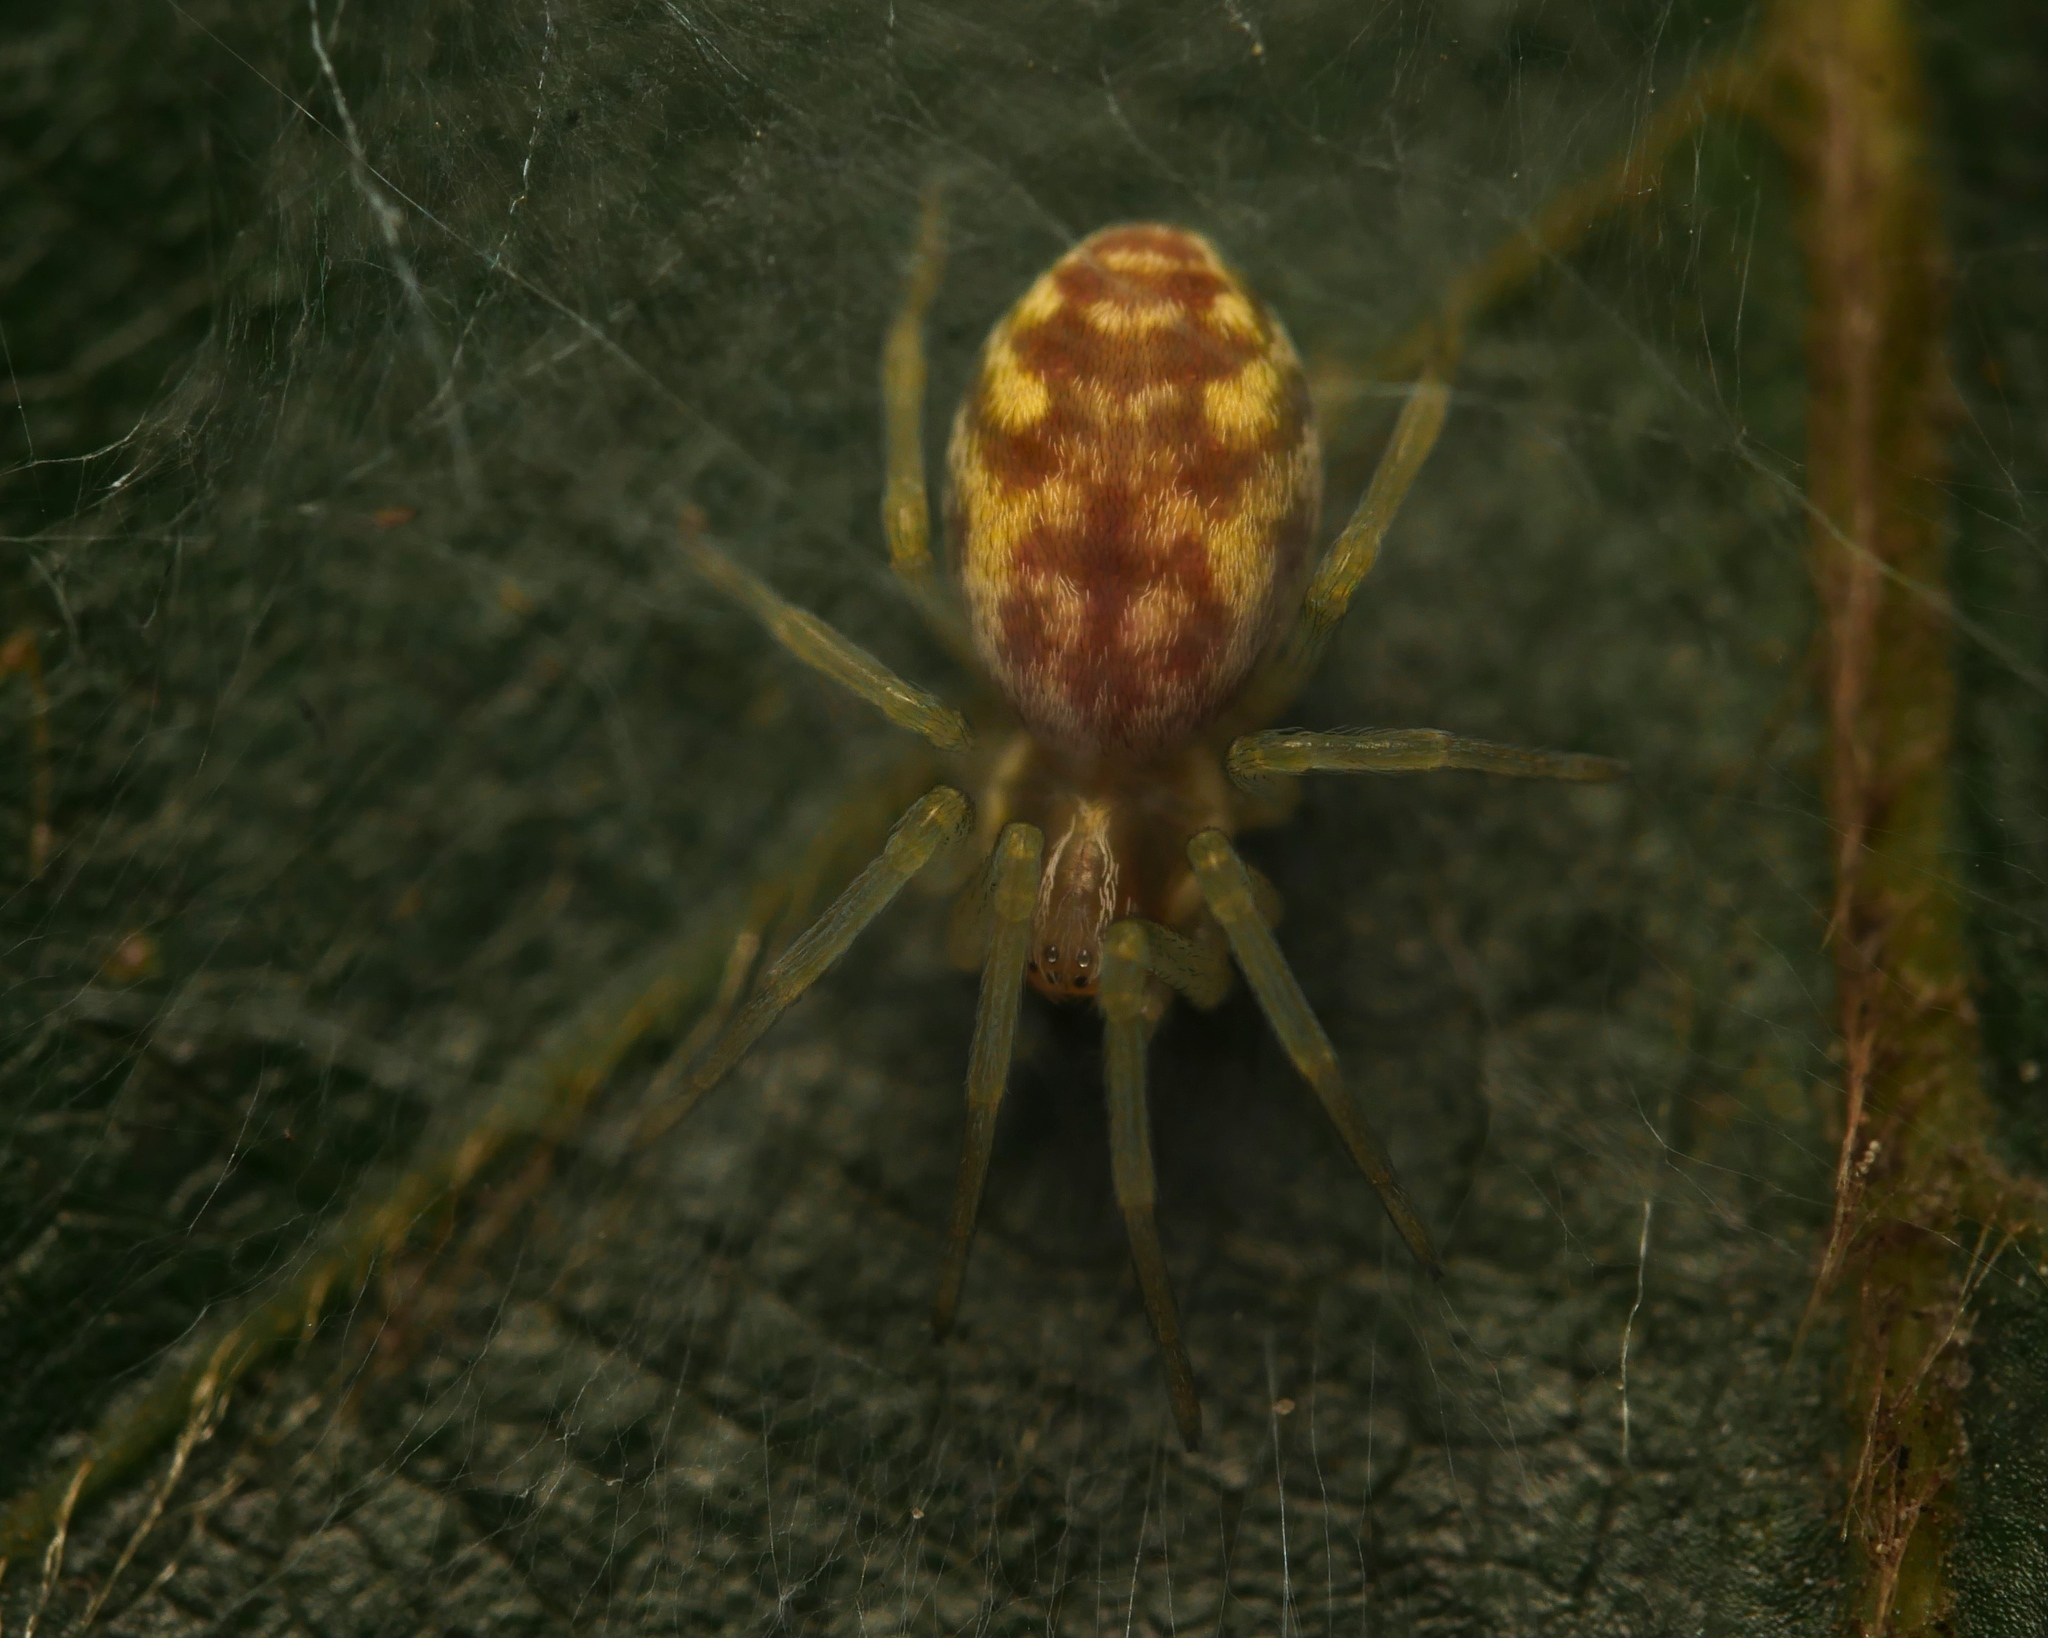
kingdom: Animalia
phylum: Arthropoda
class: Arachnida
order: Araneae
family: Dictynidae
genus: Nigma
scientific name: Nigma flavescens
